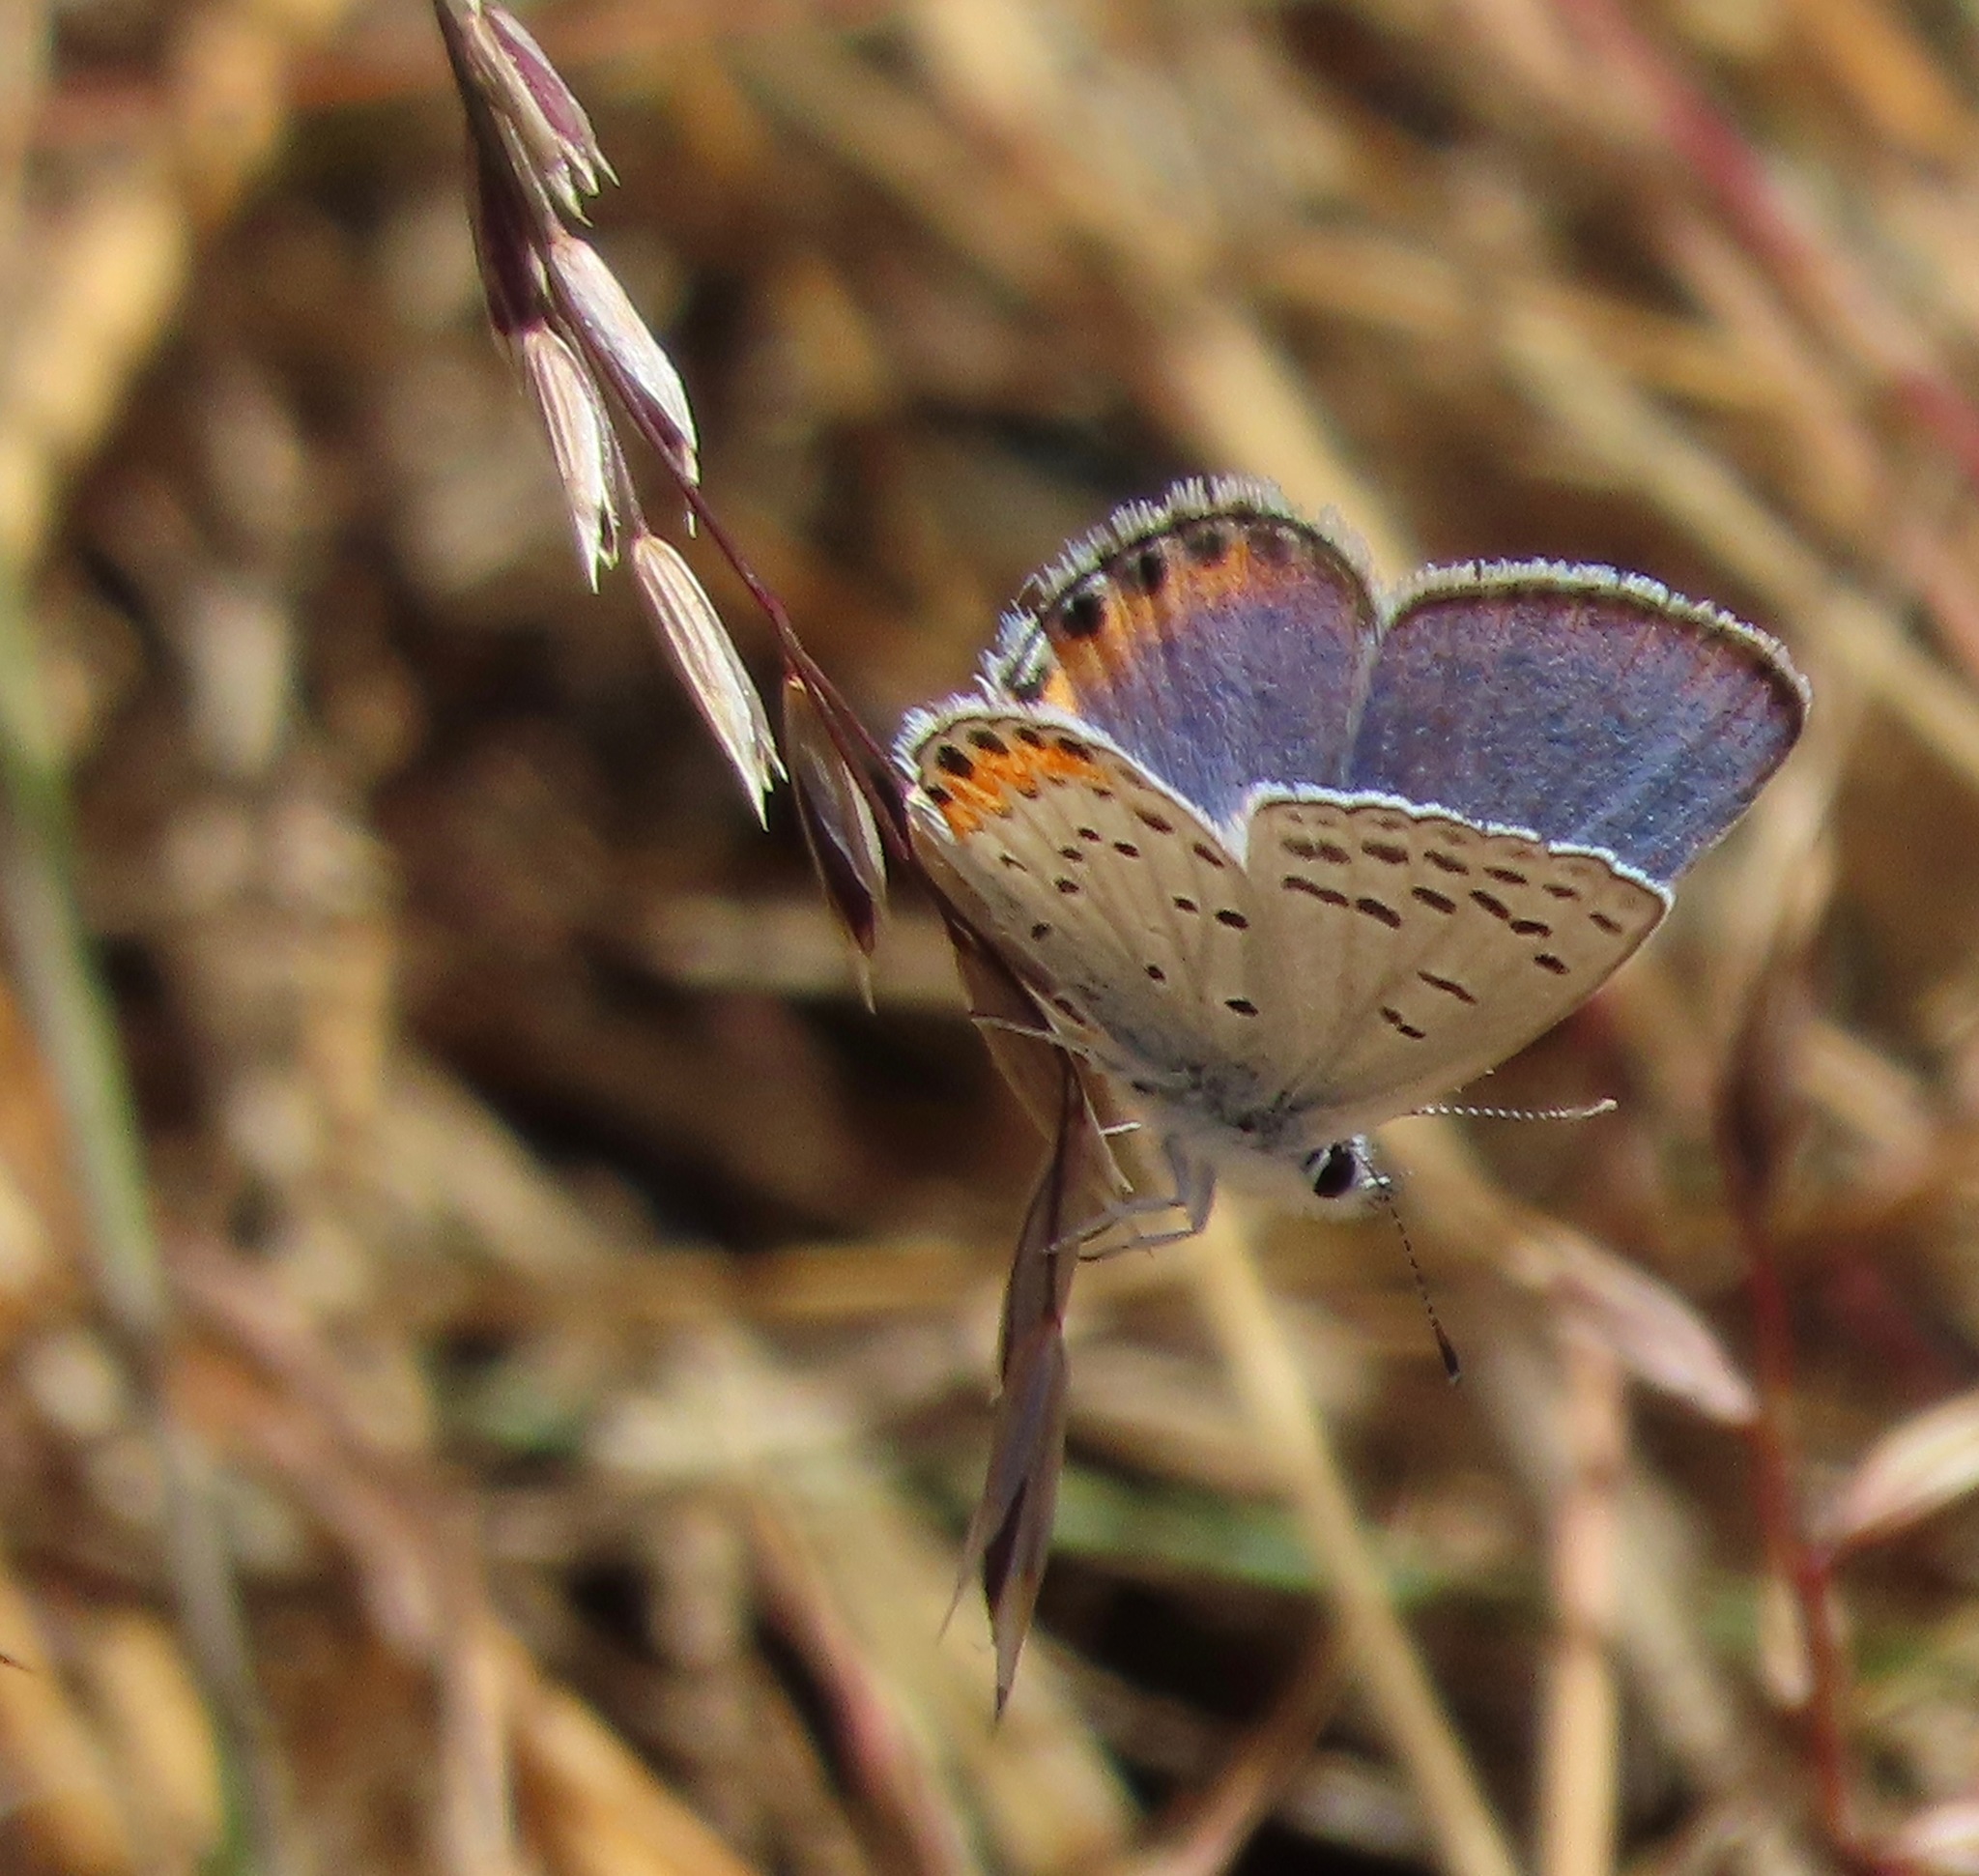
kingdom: Animalia
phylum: Arthropoda
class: Insecta
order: Lepidoptera
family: Lycaenidae
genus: Icaricia
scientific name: Icaricia acmon
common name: Acmon blue
